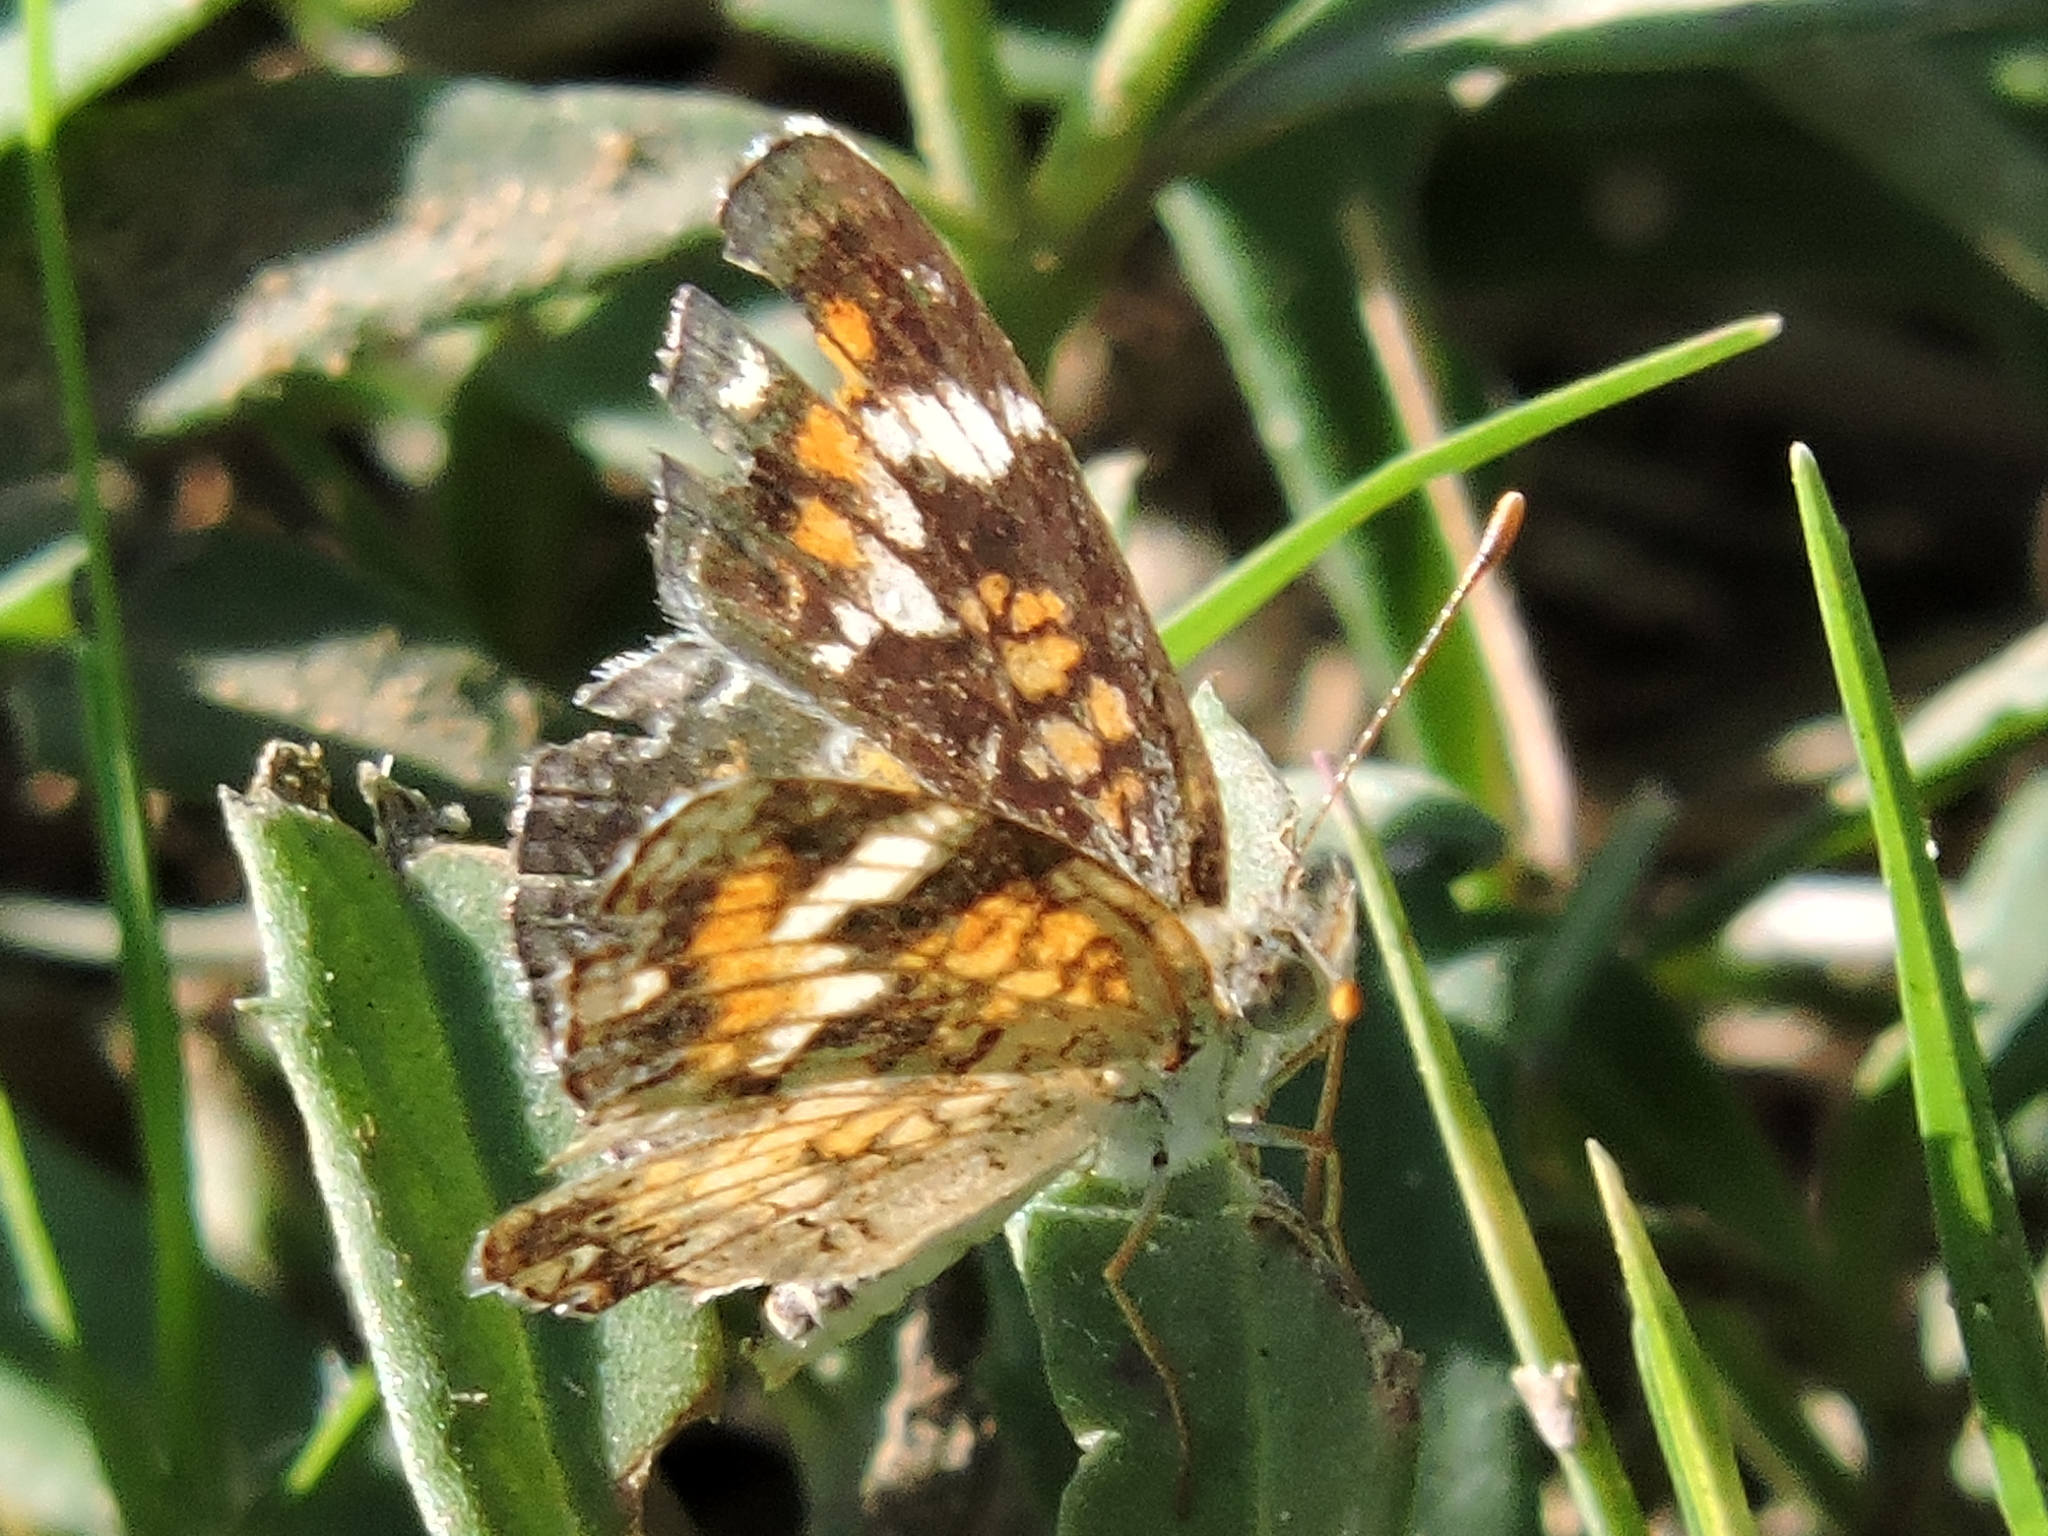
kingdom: Animalia
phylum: Arthropoda
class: Insecta
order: Lepidoptera
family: Nymphalidae
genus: Phyciodes
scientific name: Phyciodes phaon
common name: Phaon crescent
